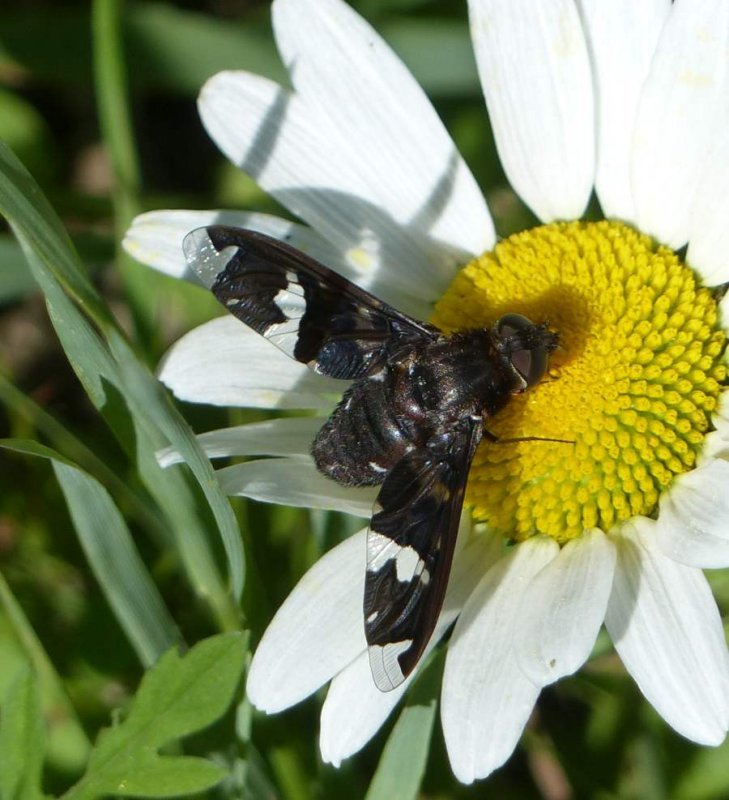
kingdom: Animalia
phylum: Arthropoda
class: Insecta
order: Diptera
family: Bombyliidae
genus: Exoprosopa
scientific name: Exoprosopa decora
